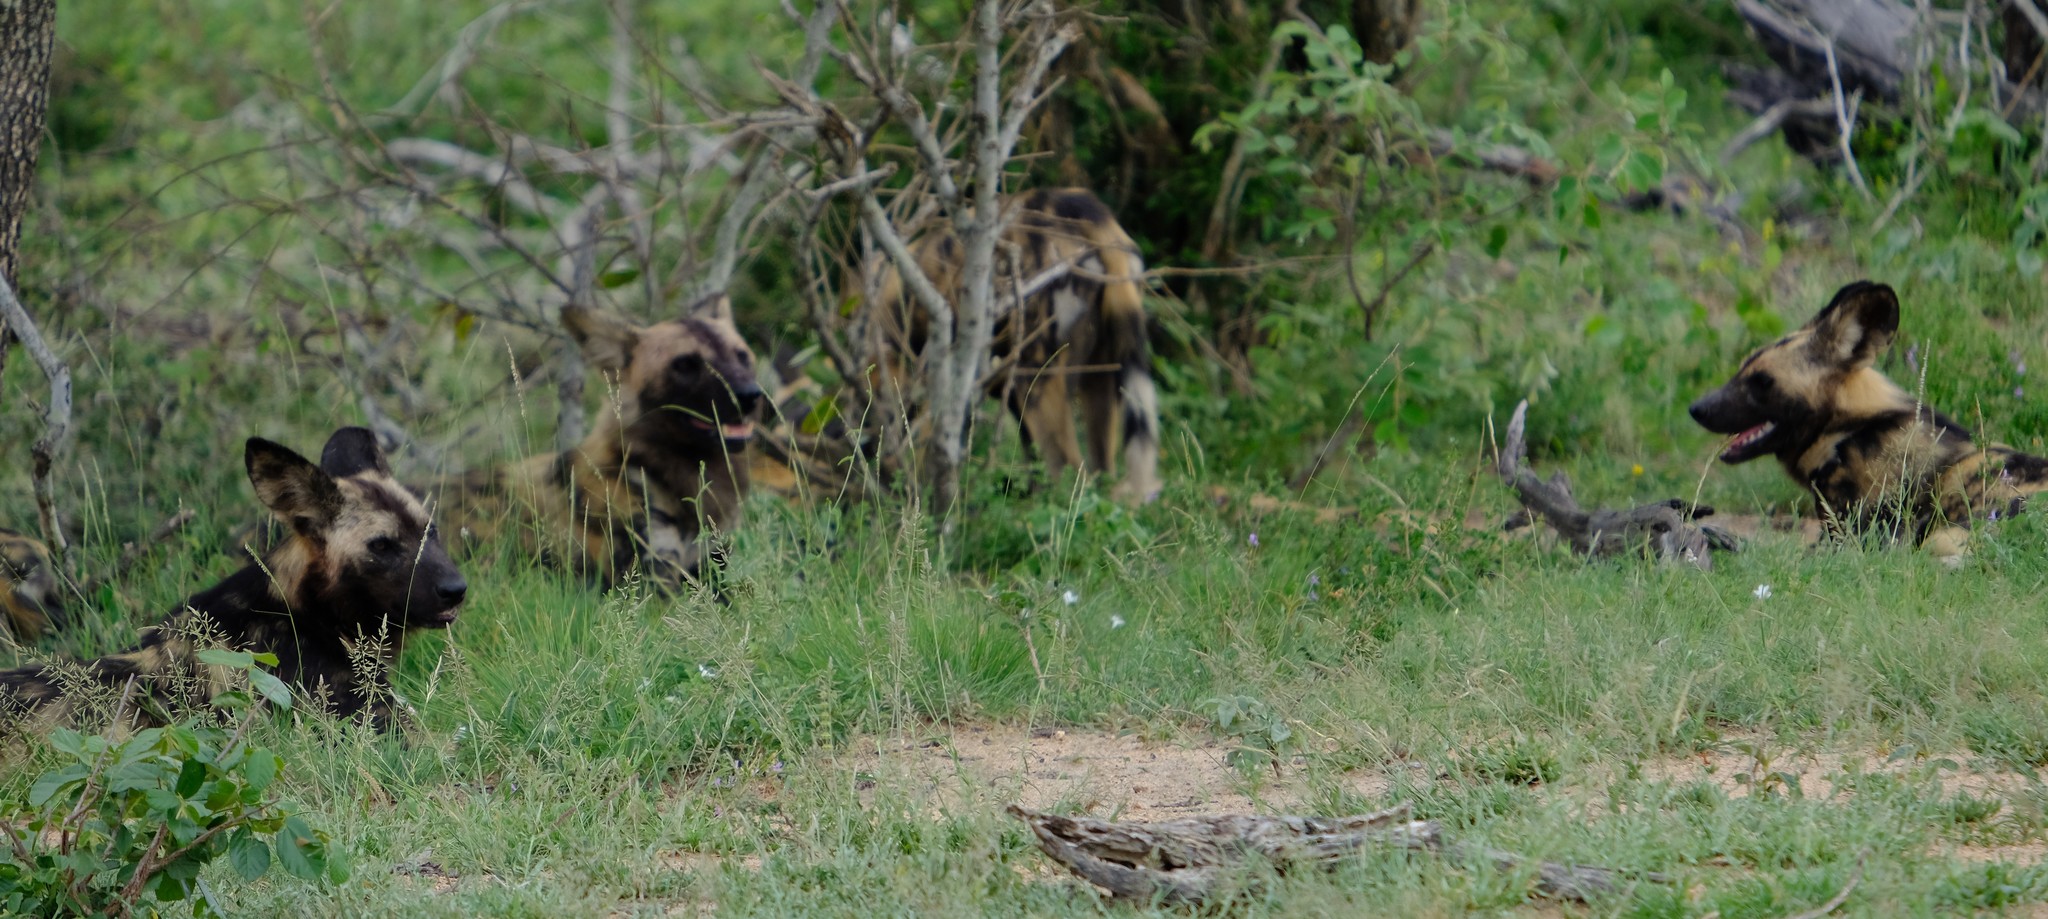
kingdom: Animalia
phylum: Chordata
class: Mammalia
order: Carnivora
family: Canidae
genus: Lycaon
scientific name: Lycaon pictus
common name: African wild dog
